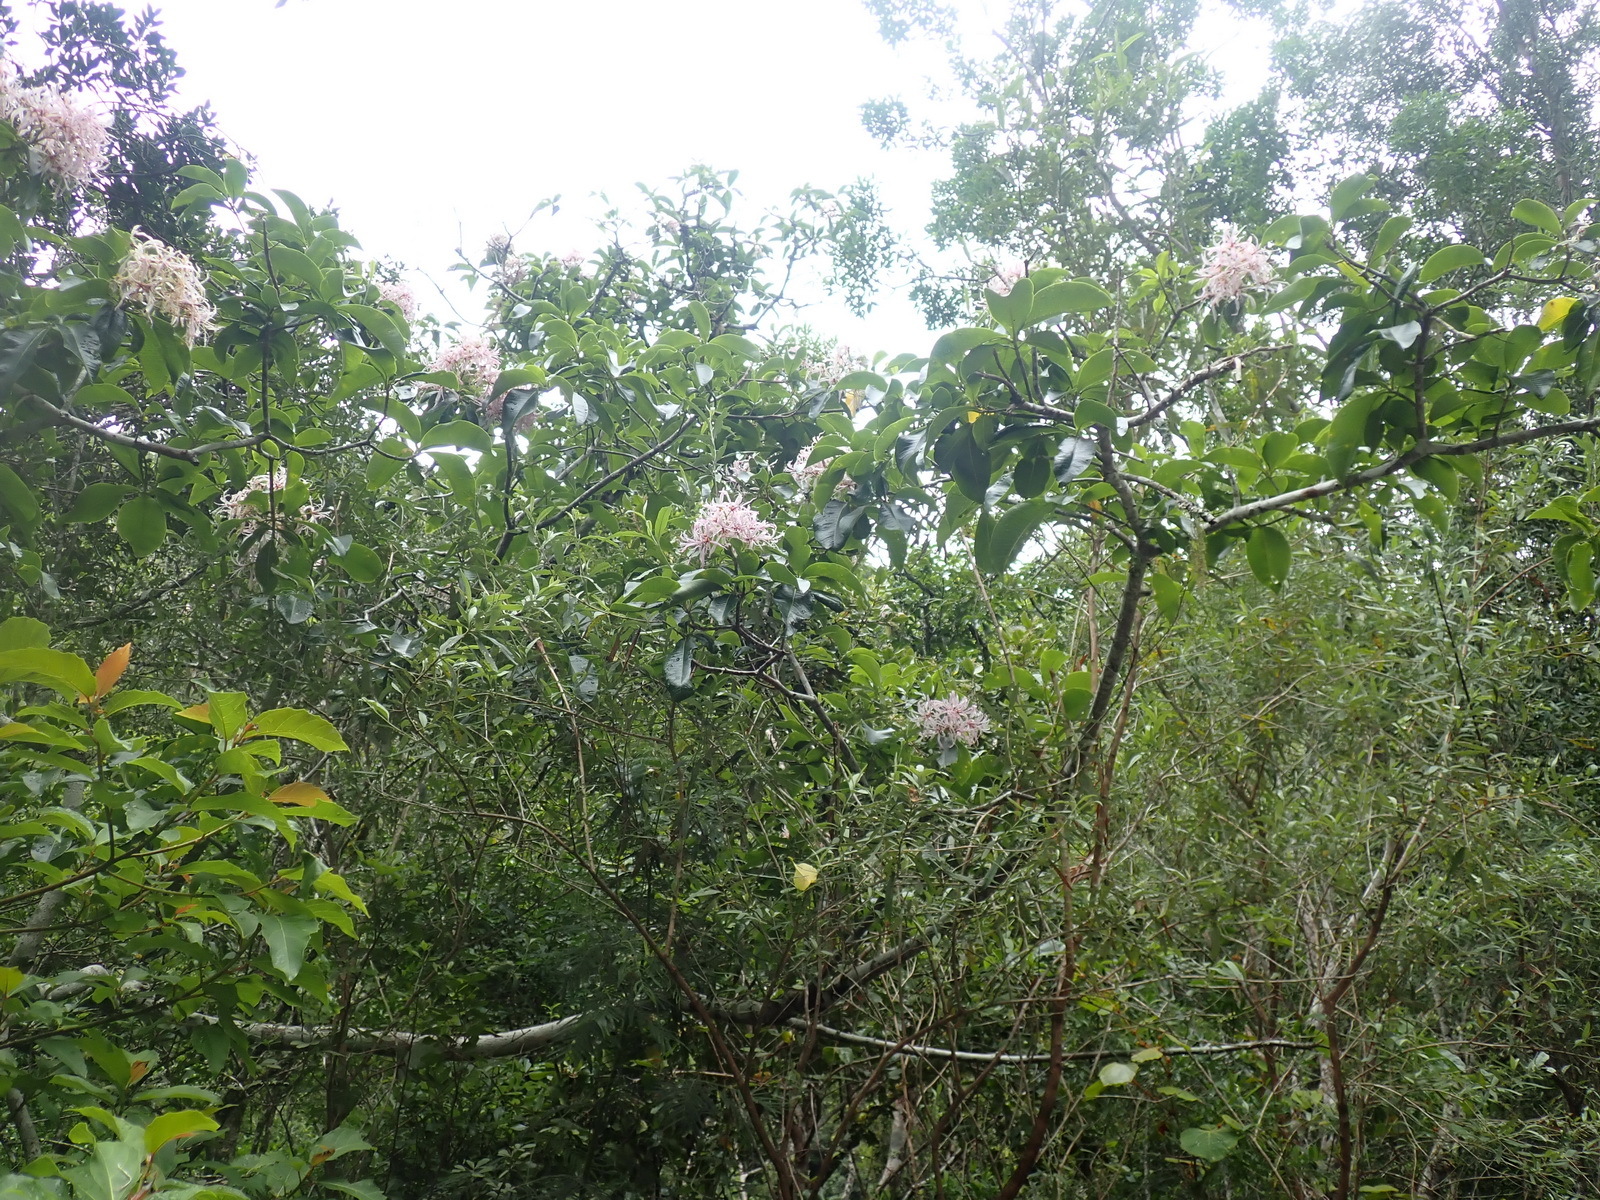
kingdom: Plantae
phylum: Tracheophyta
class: Magnoliopsida
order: Sapindales
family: Rutaceae
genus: Calodendrum
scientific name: Calodendrum capense
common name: Cape chestnut
